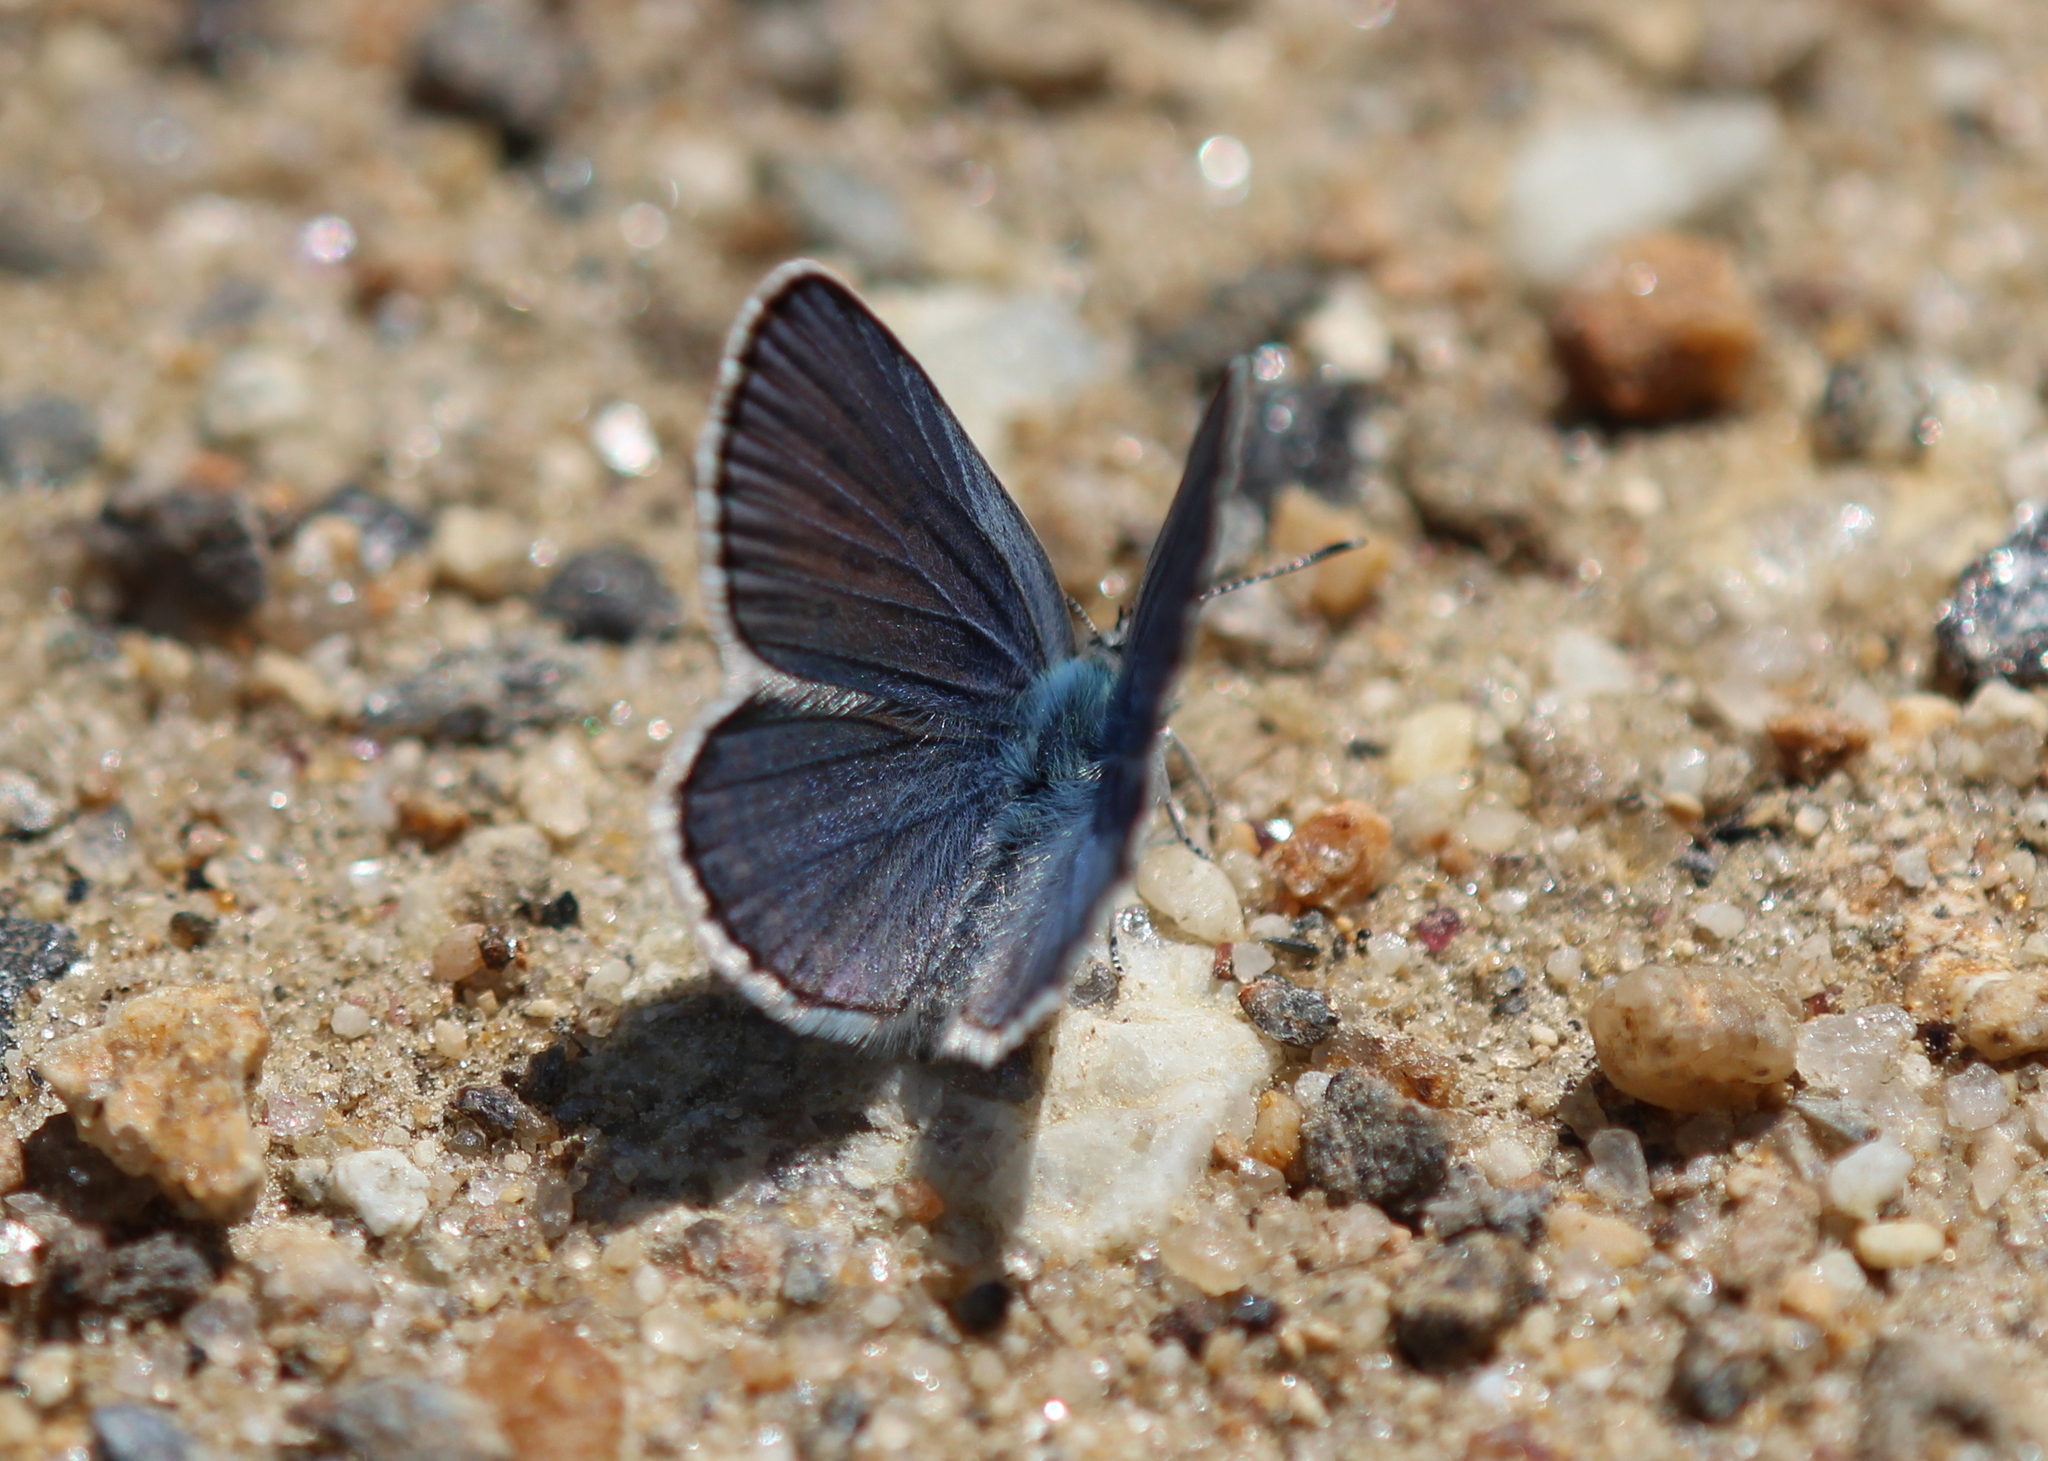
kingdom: Animalia
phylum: Arthropoda
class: Insecta
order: Lepidoptera
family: Lycaenidae
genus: Plebejus
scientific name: Plebejus samuelis
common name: Karner blue
